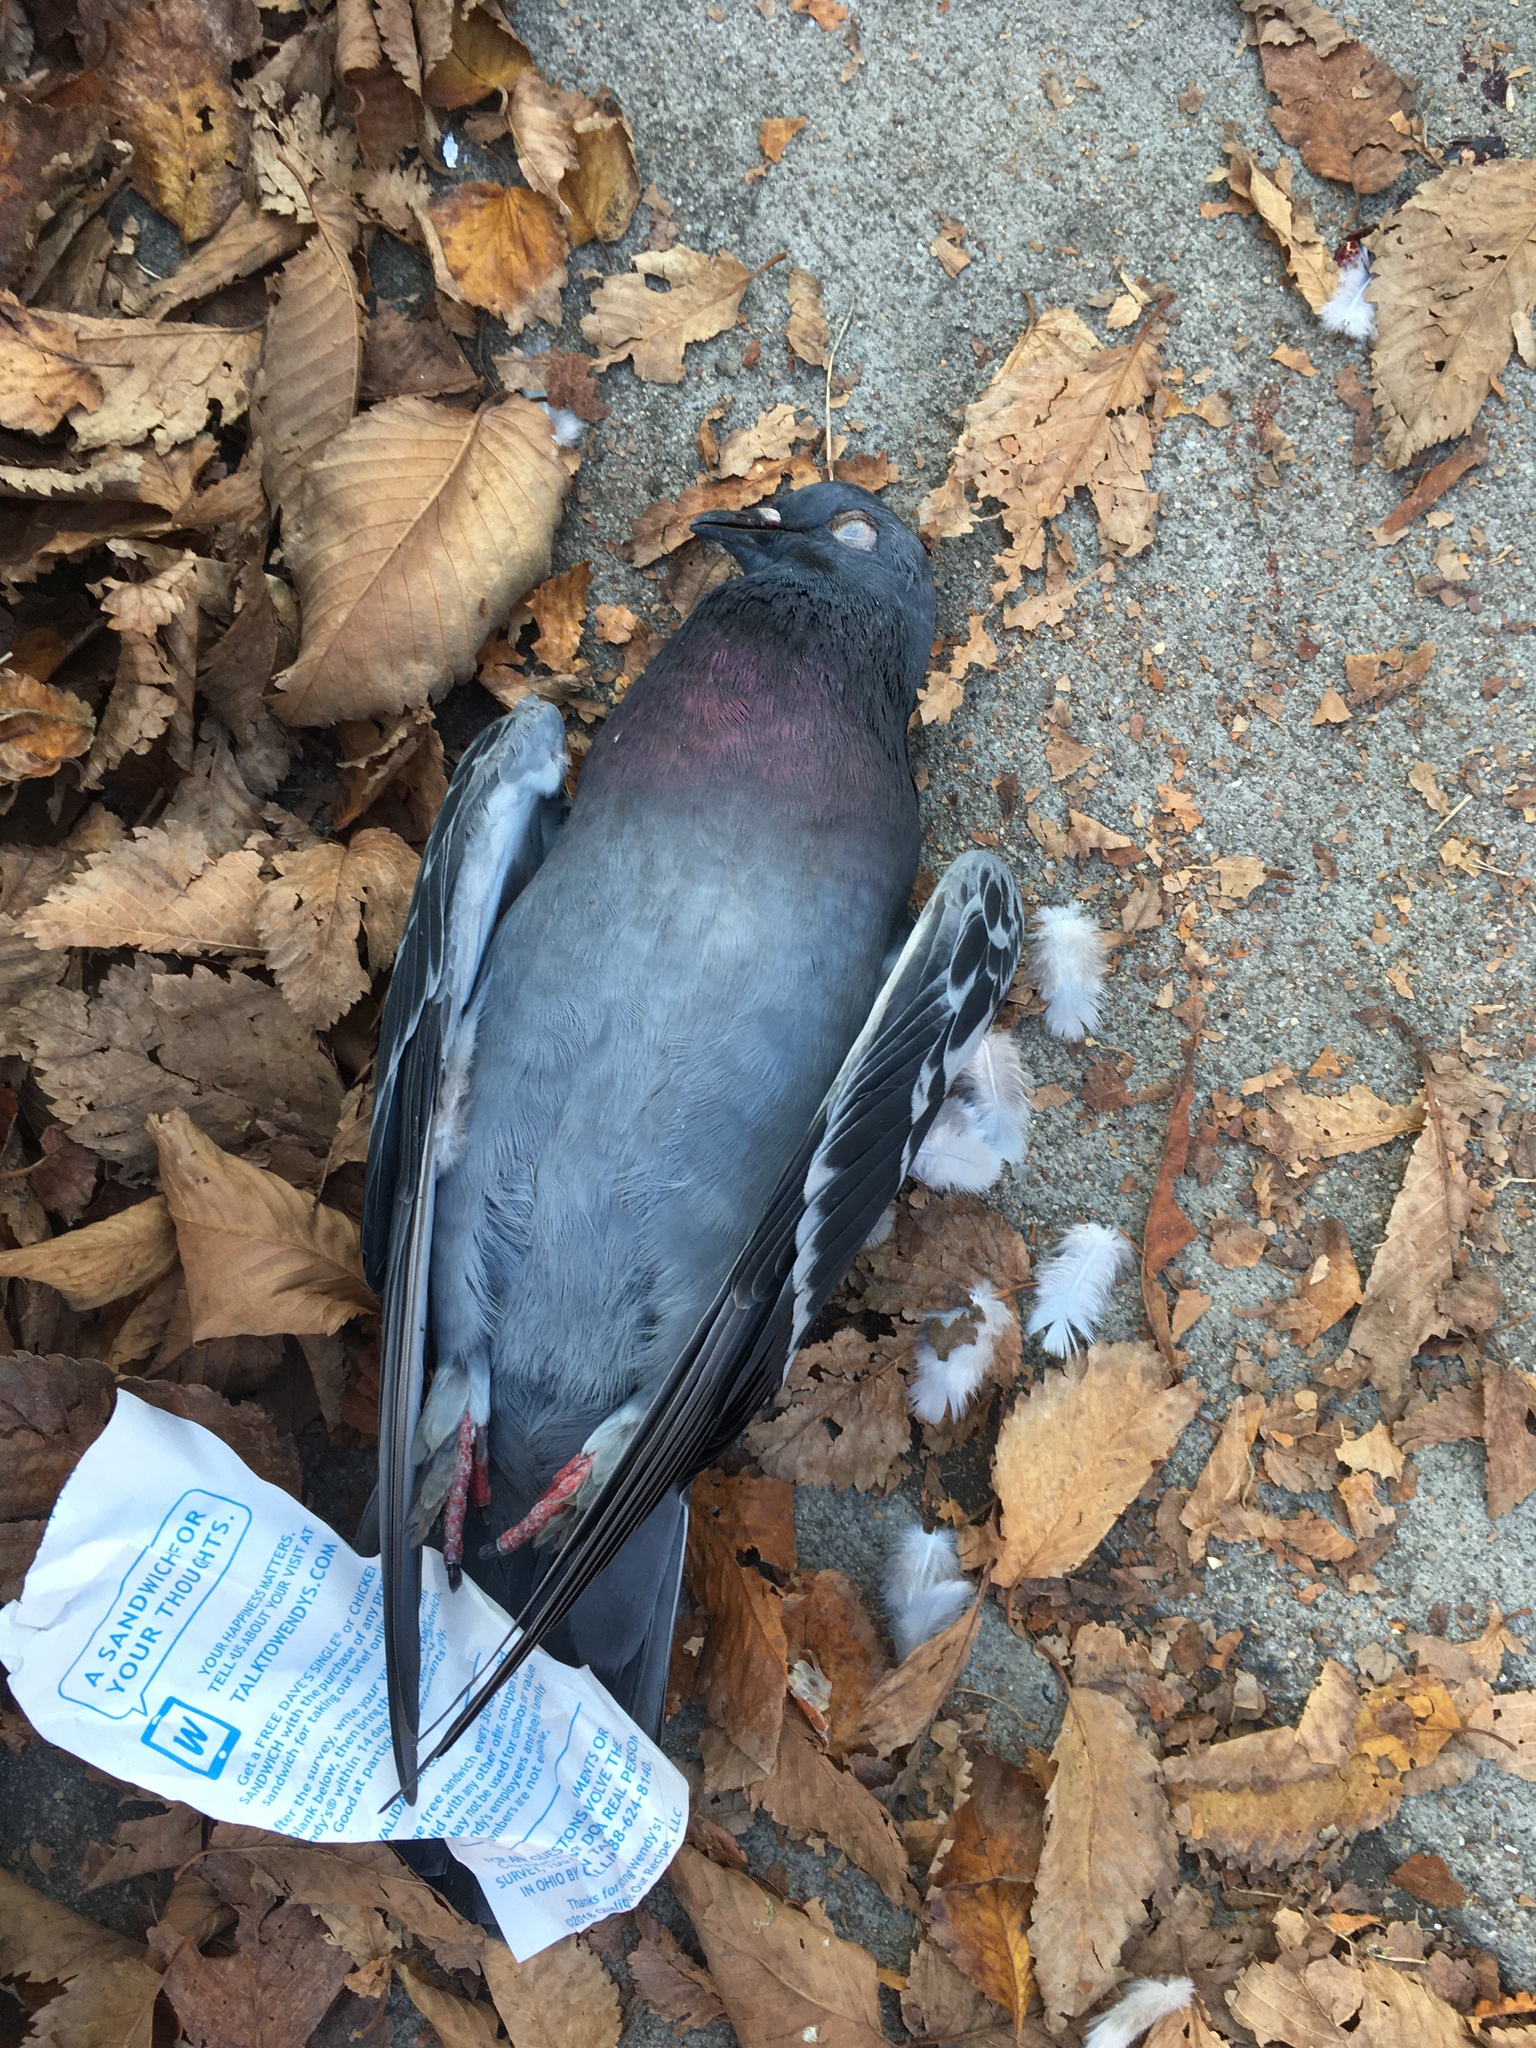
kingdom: Animalia
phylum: Chordata
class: Aves
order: Columbiformes
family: Columbidae
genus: Columba
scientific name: Columba livia
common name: Rock pigeon
